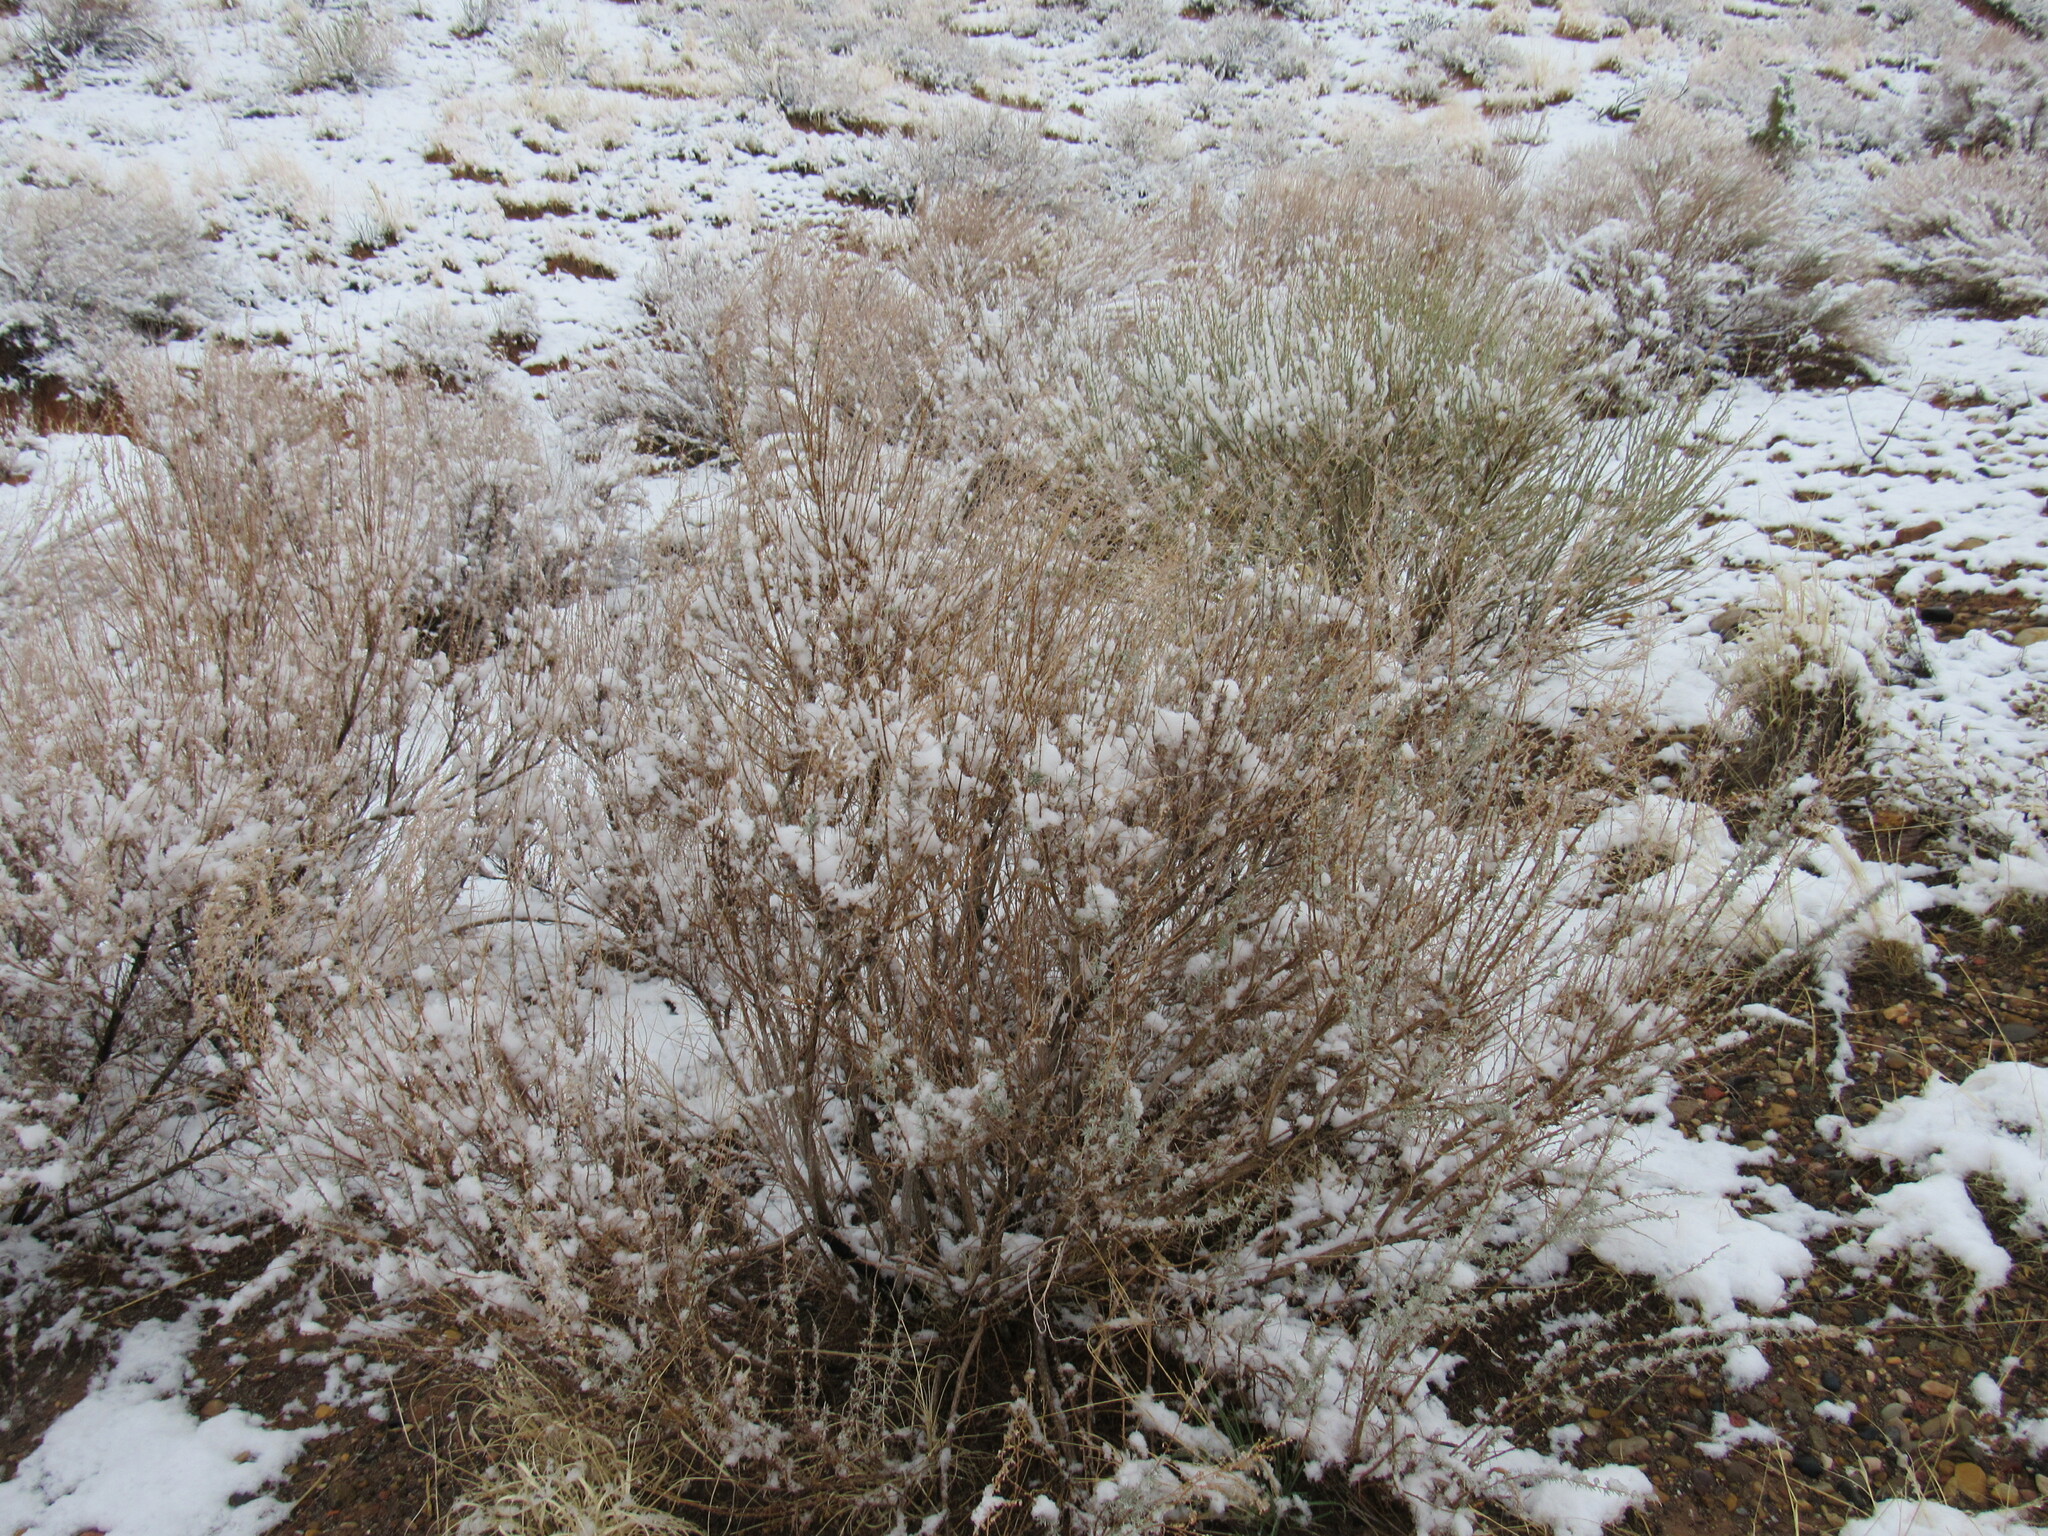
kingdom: Plantae
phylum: Tracheophyta
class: Magnoliopsida
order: Asterales
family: Asteraceae
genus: Artemisia
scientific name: Artemisia filifolia
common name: Sand-sage
